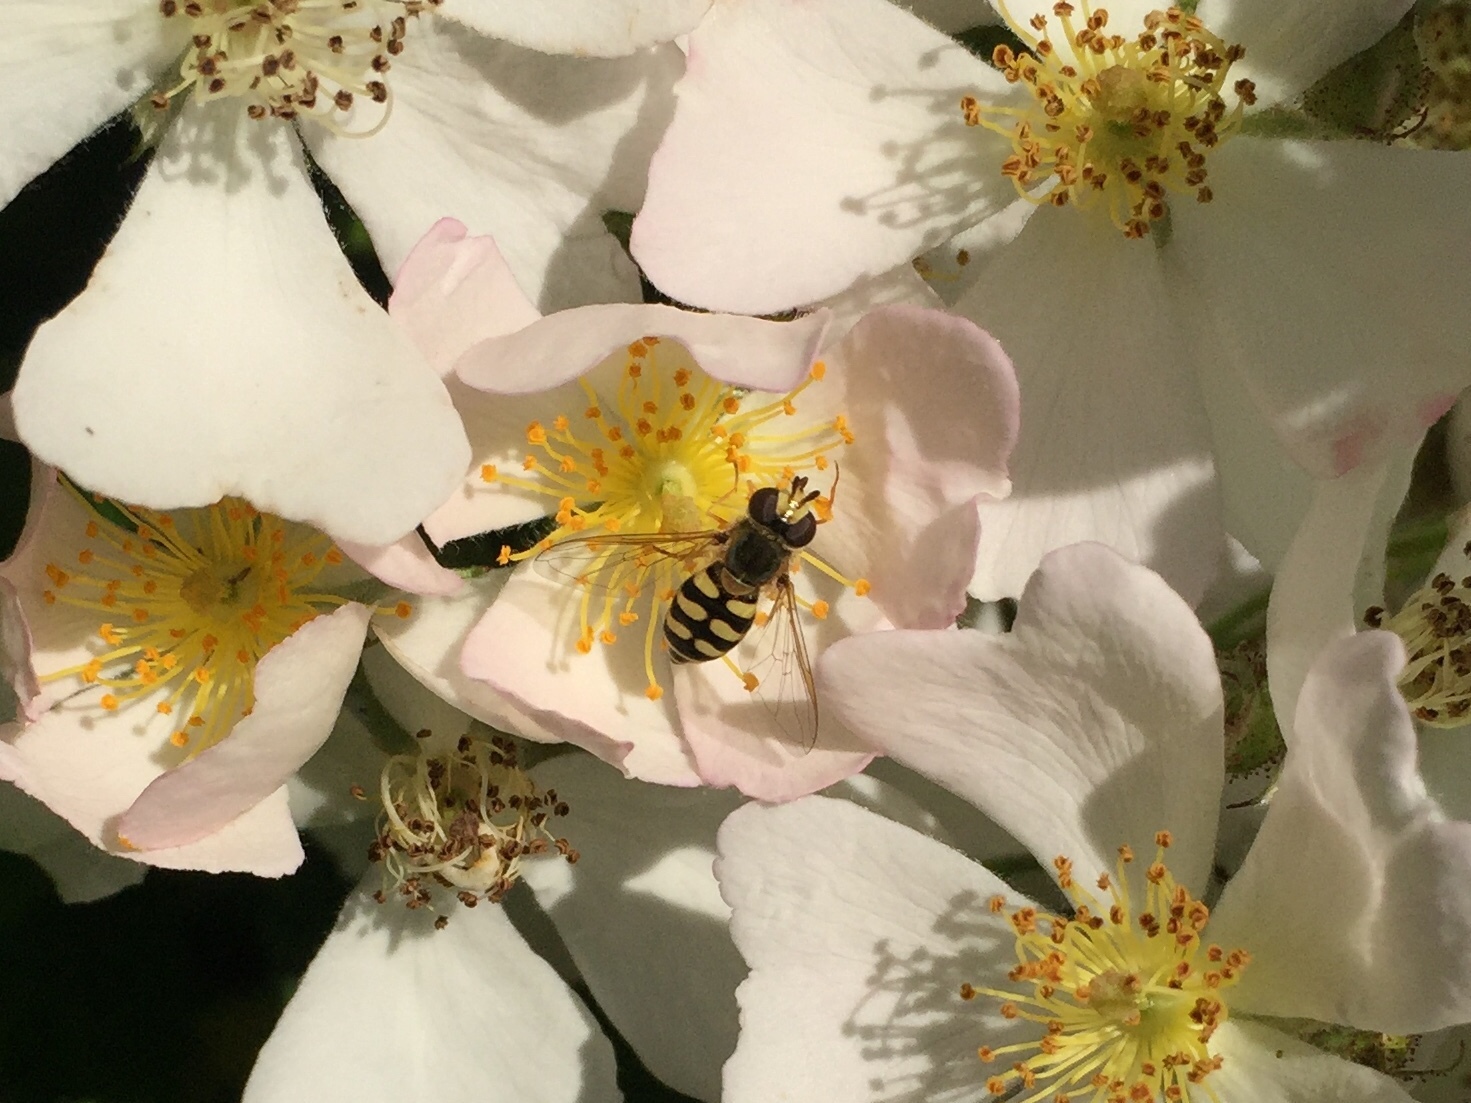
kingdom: Animalia
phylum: Arthropoda
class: Insecta
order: Diptera
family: Syrphidae
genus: Eupeodes
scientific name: Eupeodes corollae
